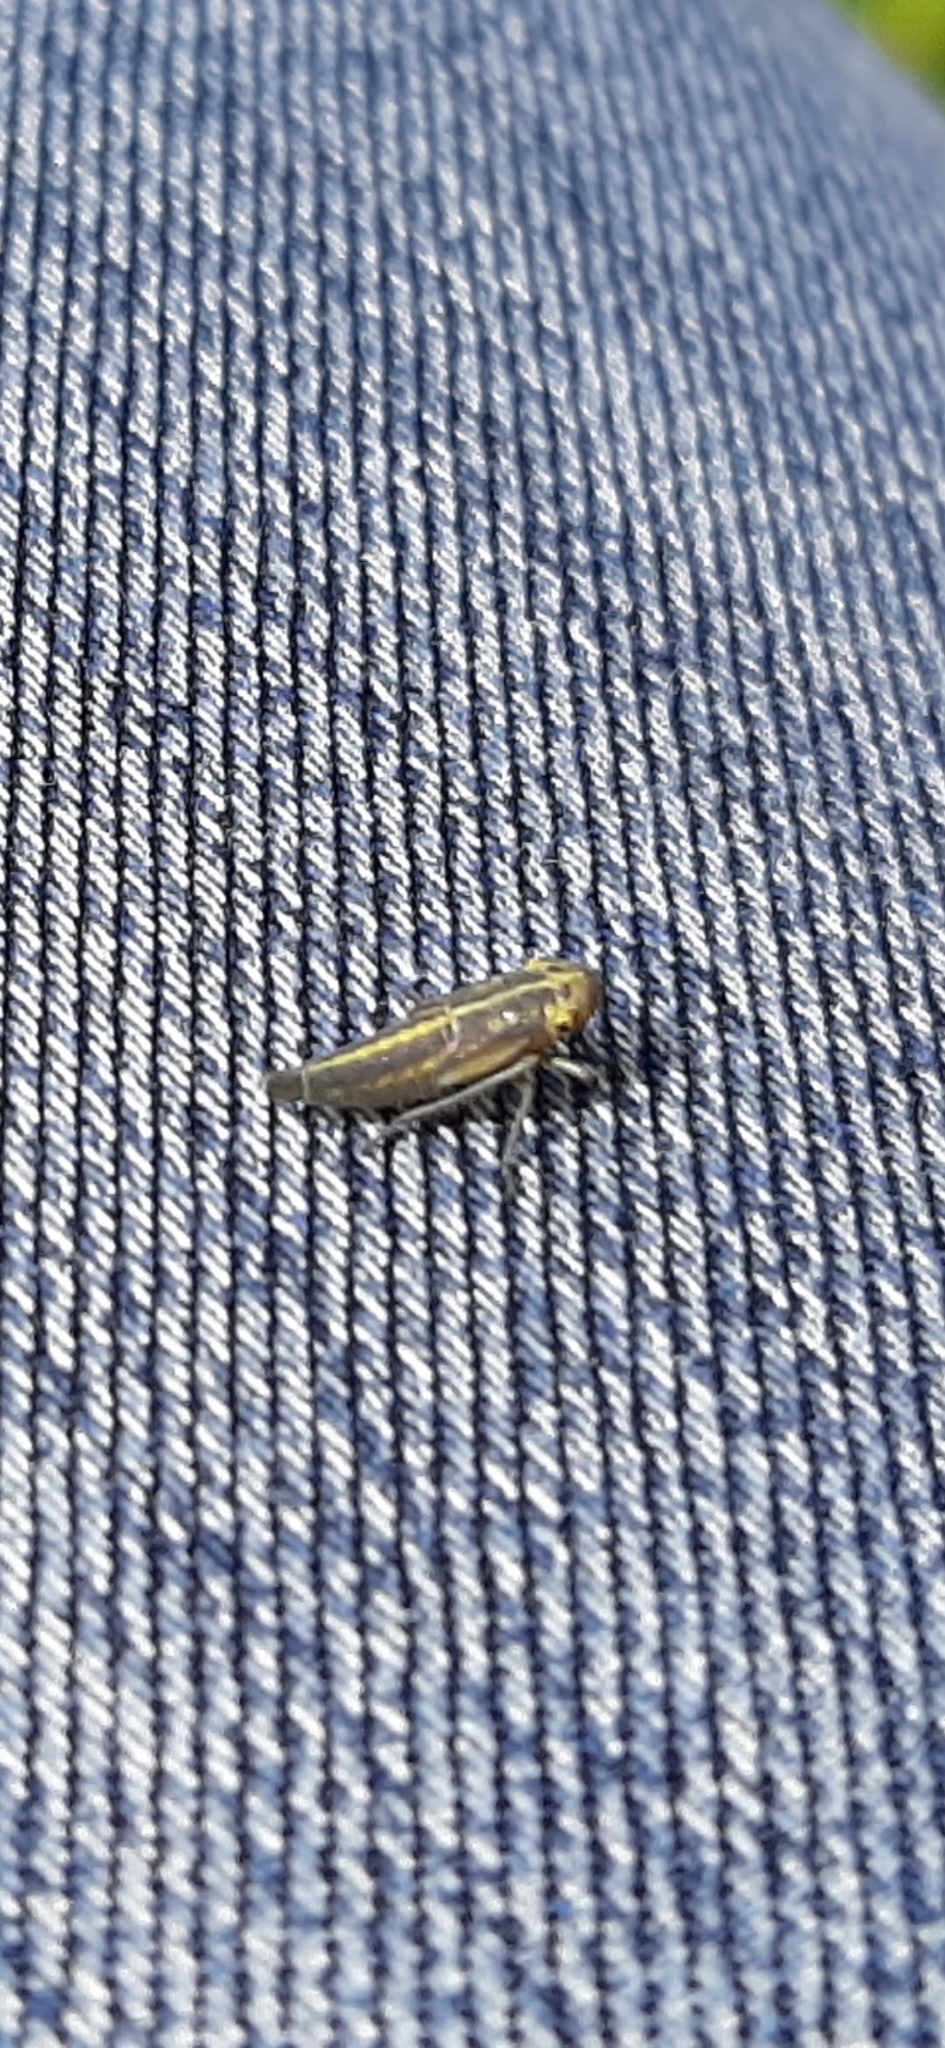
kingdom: Animalia
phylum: Arthropoda
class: Insecta
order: Hemiptera
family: Cicadellidae
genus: Cicadella
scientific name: Cicadella viridis
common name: Leafhopper
